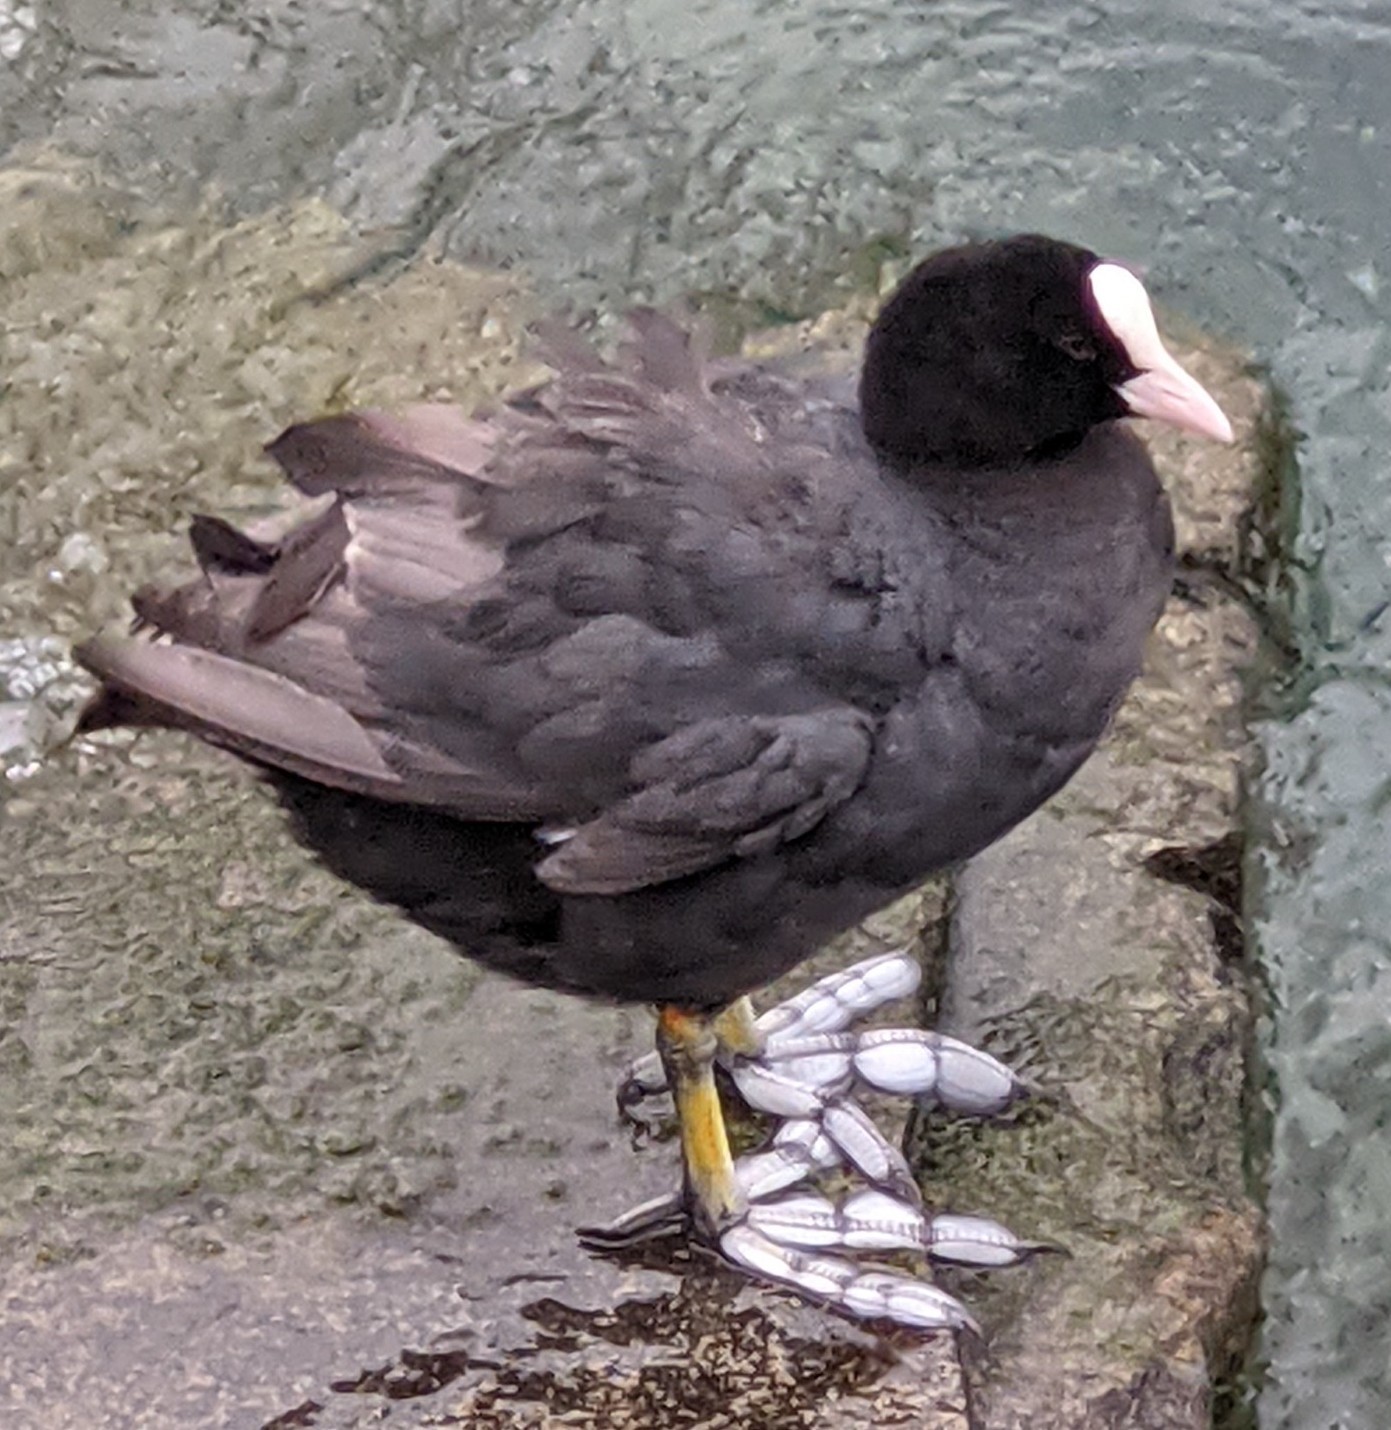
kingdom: Animalia
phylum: Chordata
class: Aves
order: Gruiformes
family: Rallidae
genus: Fulica
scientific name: Fulica atra
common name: Eurasian coot
